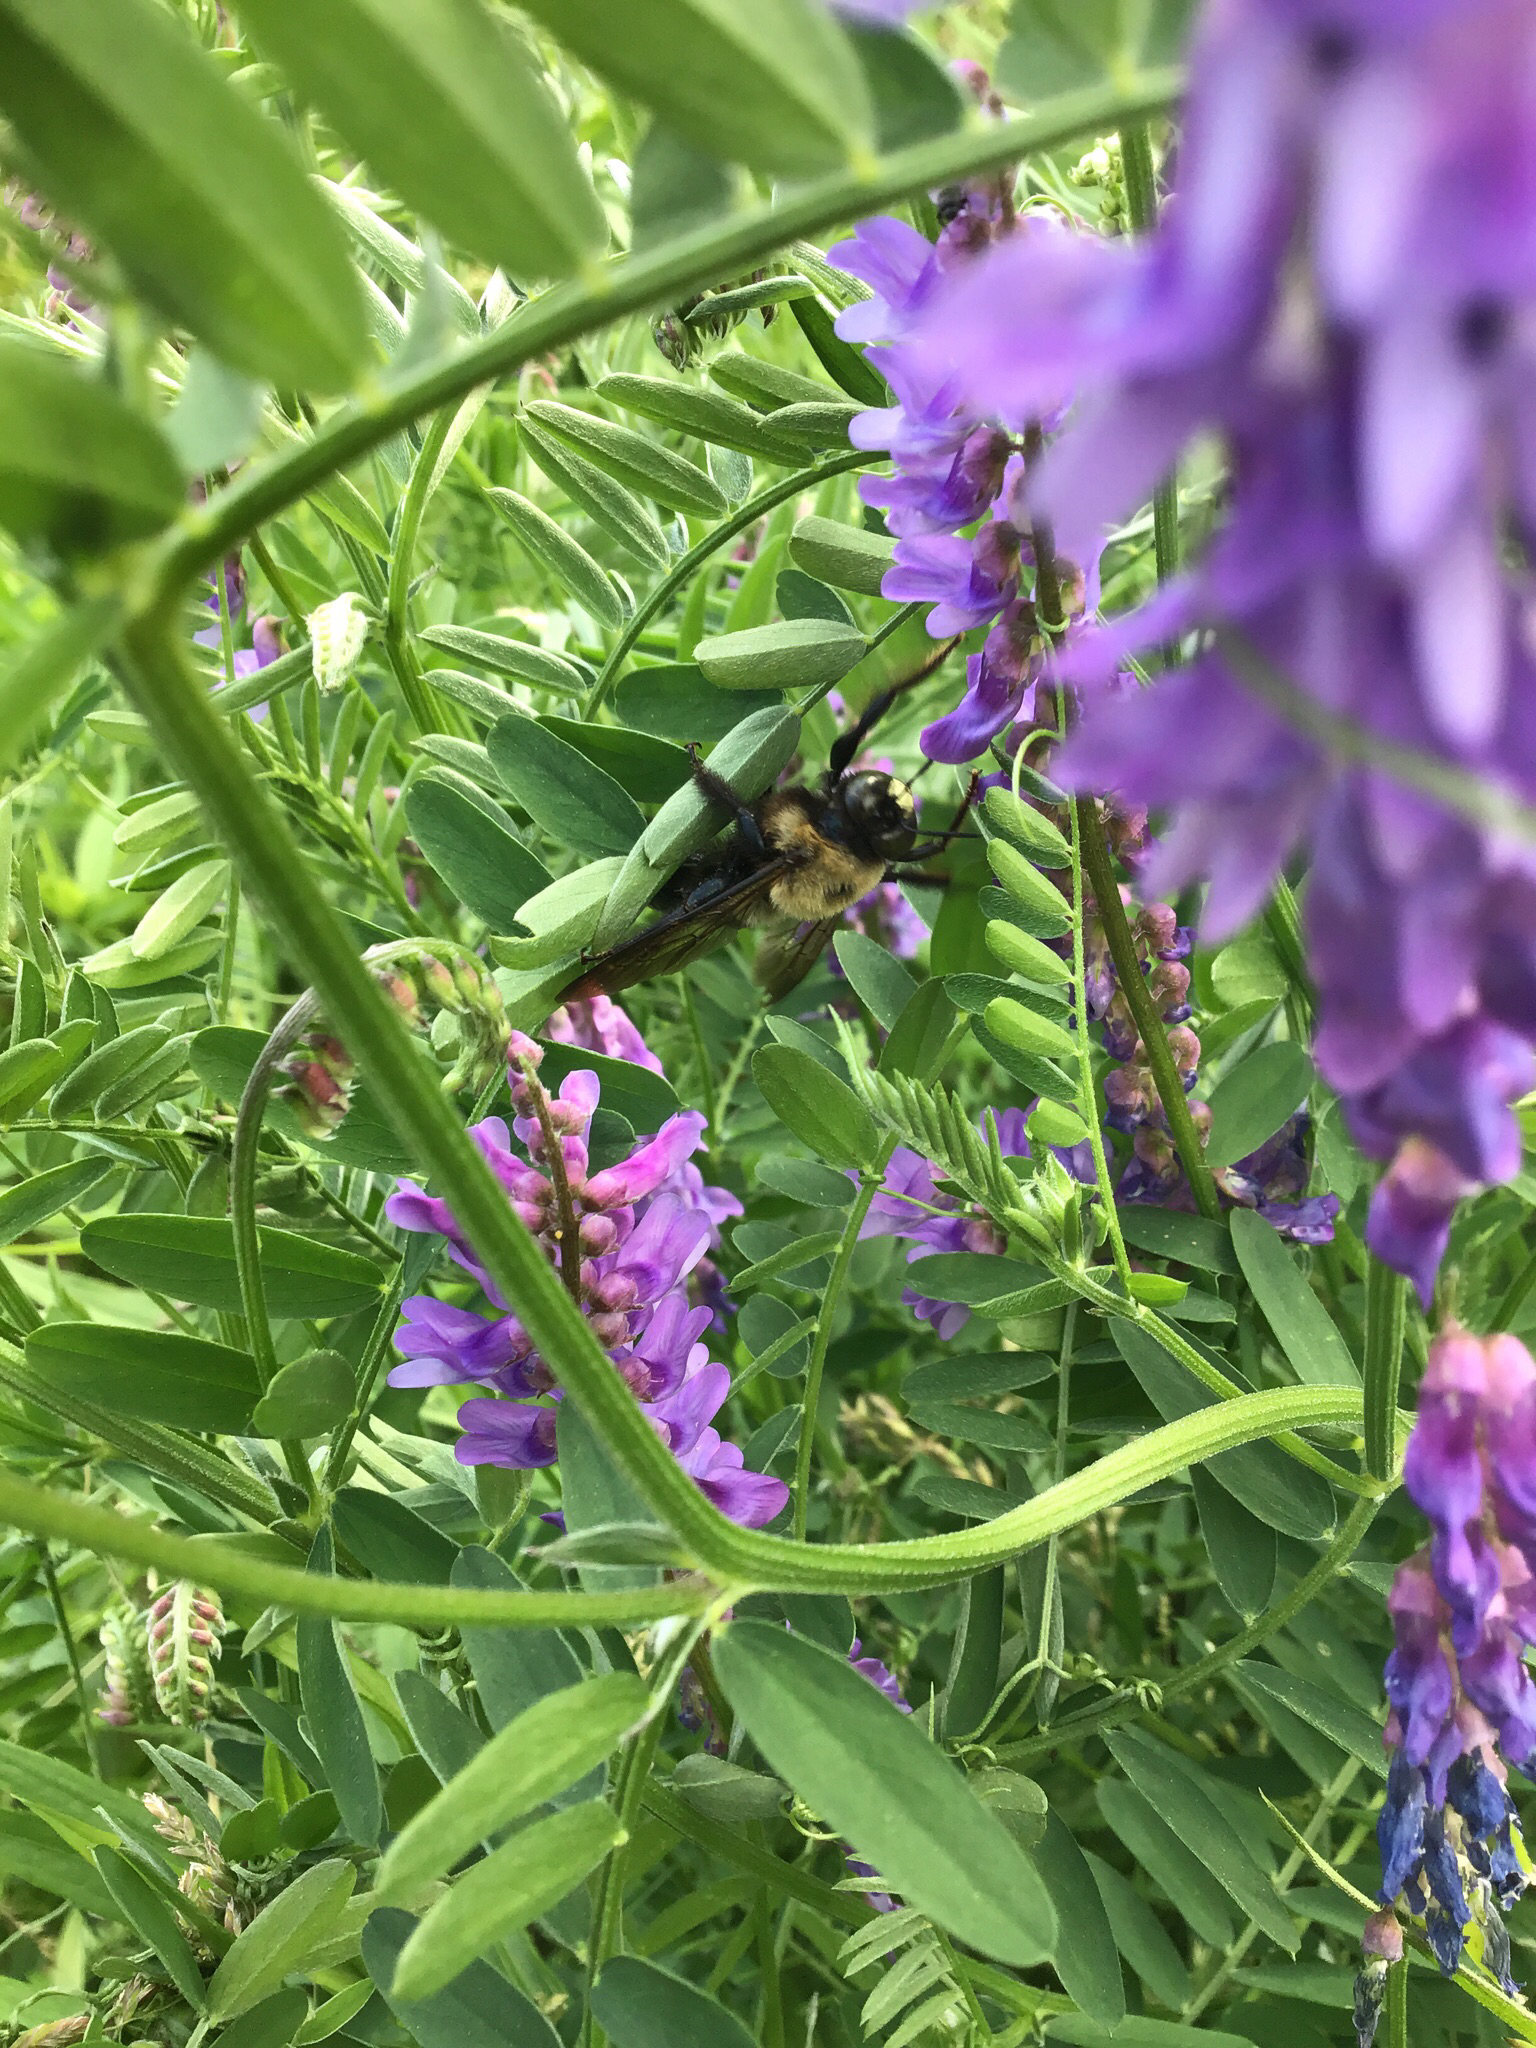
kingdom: Animalia
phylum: Arthropoda
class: Insecta
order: Hymenoptera
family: Apidae
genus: Xylocopa
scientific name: Xylocopa virginica
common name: Carpenter bee
